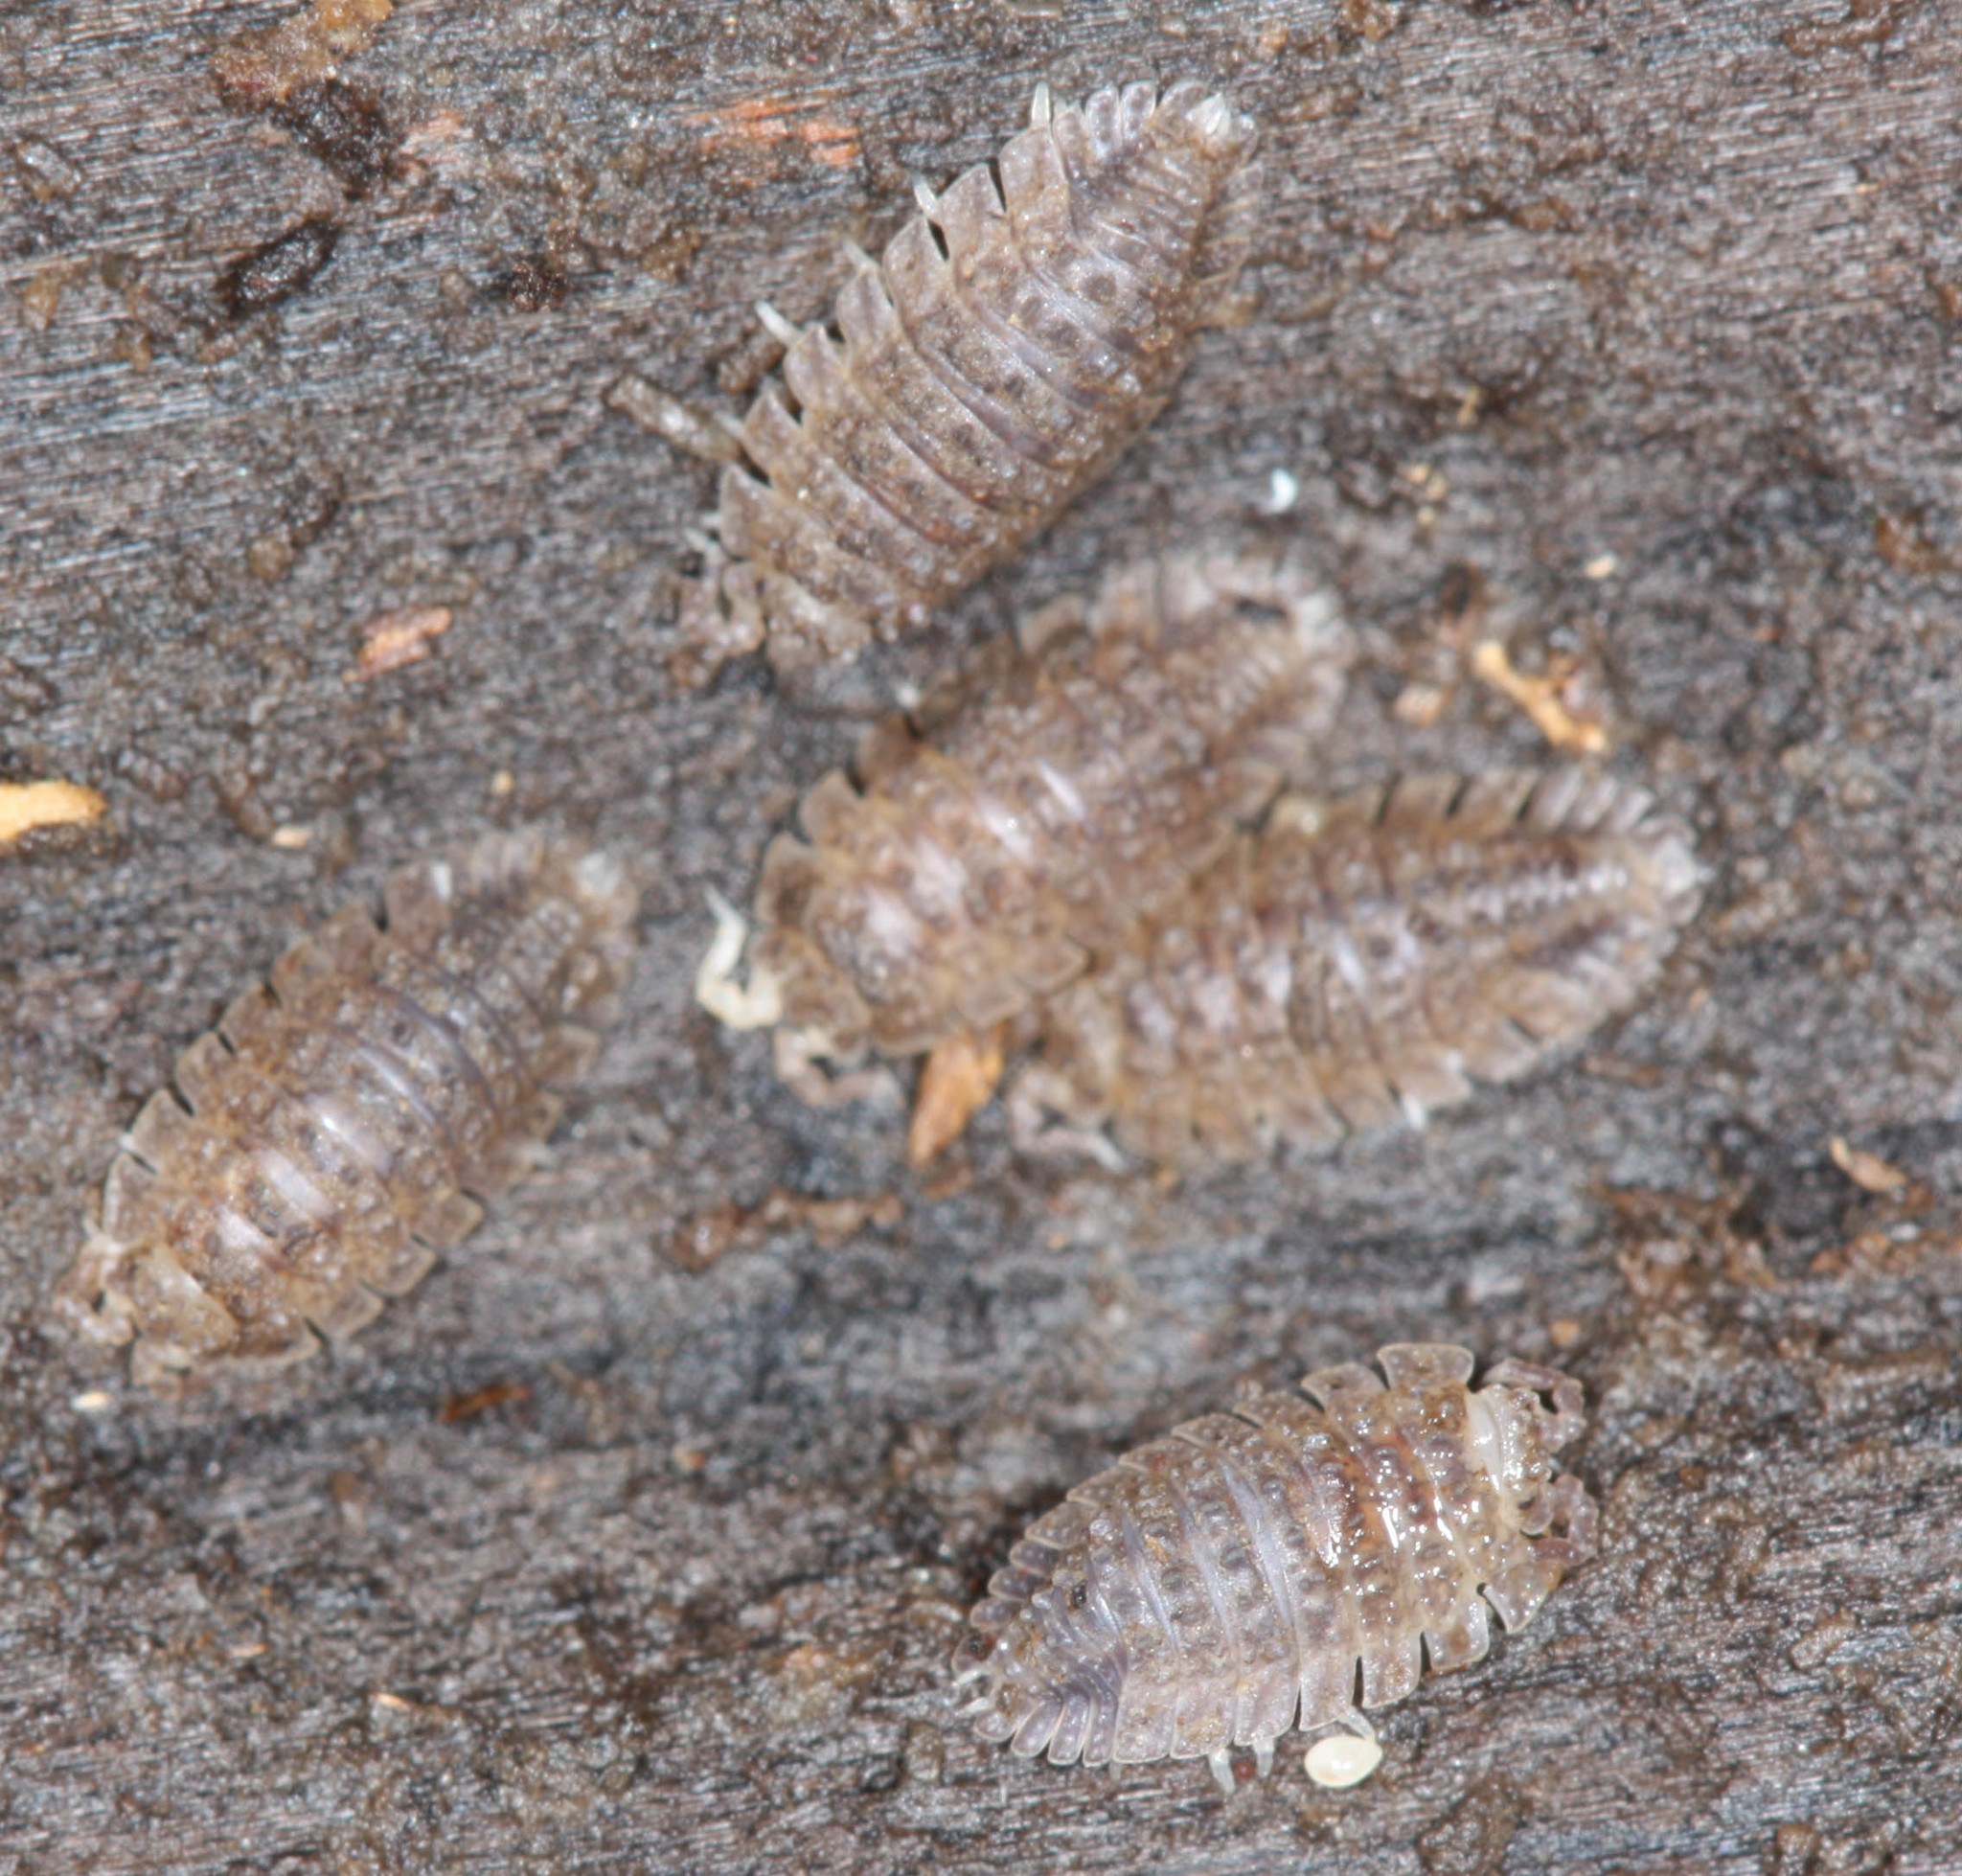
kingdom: Animalia
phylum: Arthropoda
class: Malacostraca
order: Isopoda
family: Detonidae
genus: Armadilloniscus
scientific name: Armadilloniscus coronacapitalis
